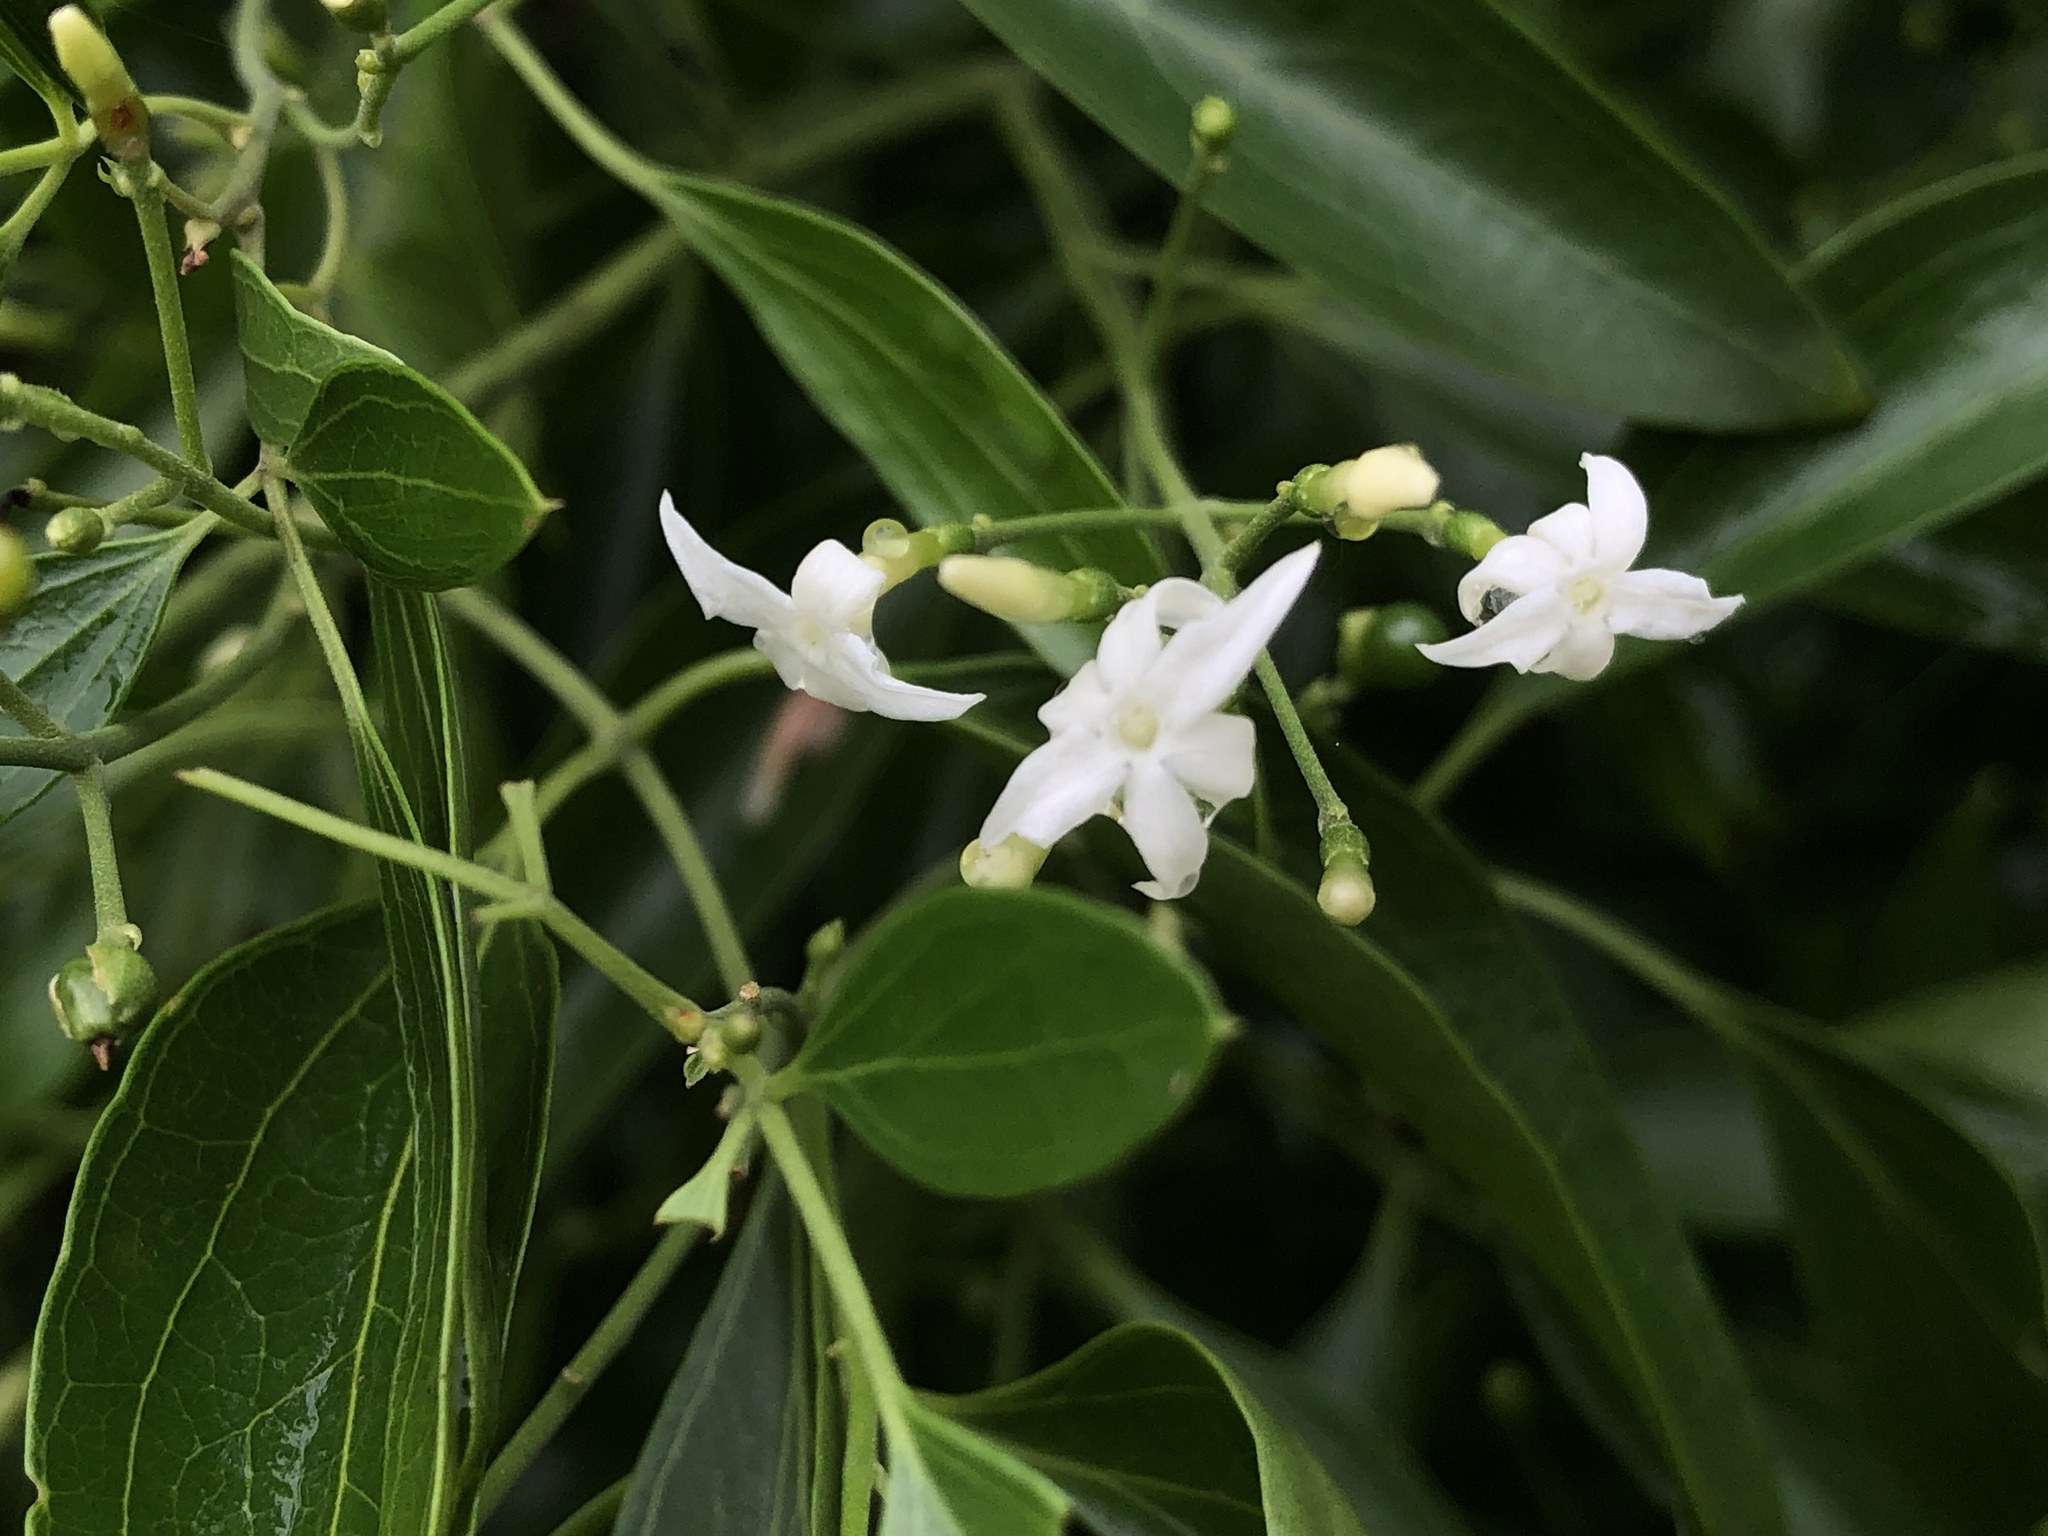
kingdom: Plantae
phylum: Tracheophyta
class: Magnoliopsida
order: Lamiales
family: Oleaceae
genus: Jasminum
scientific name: Jasminum didymum
